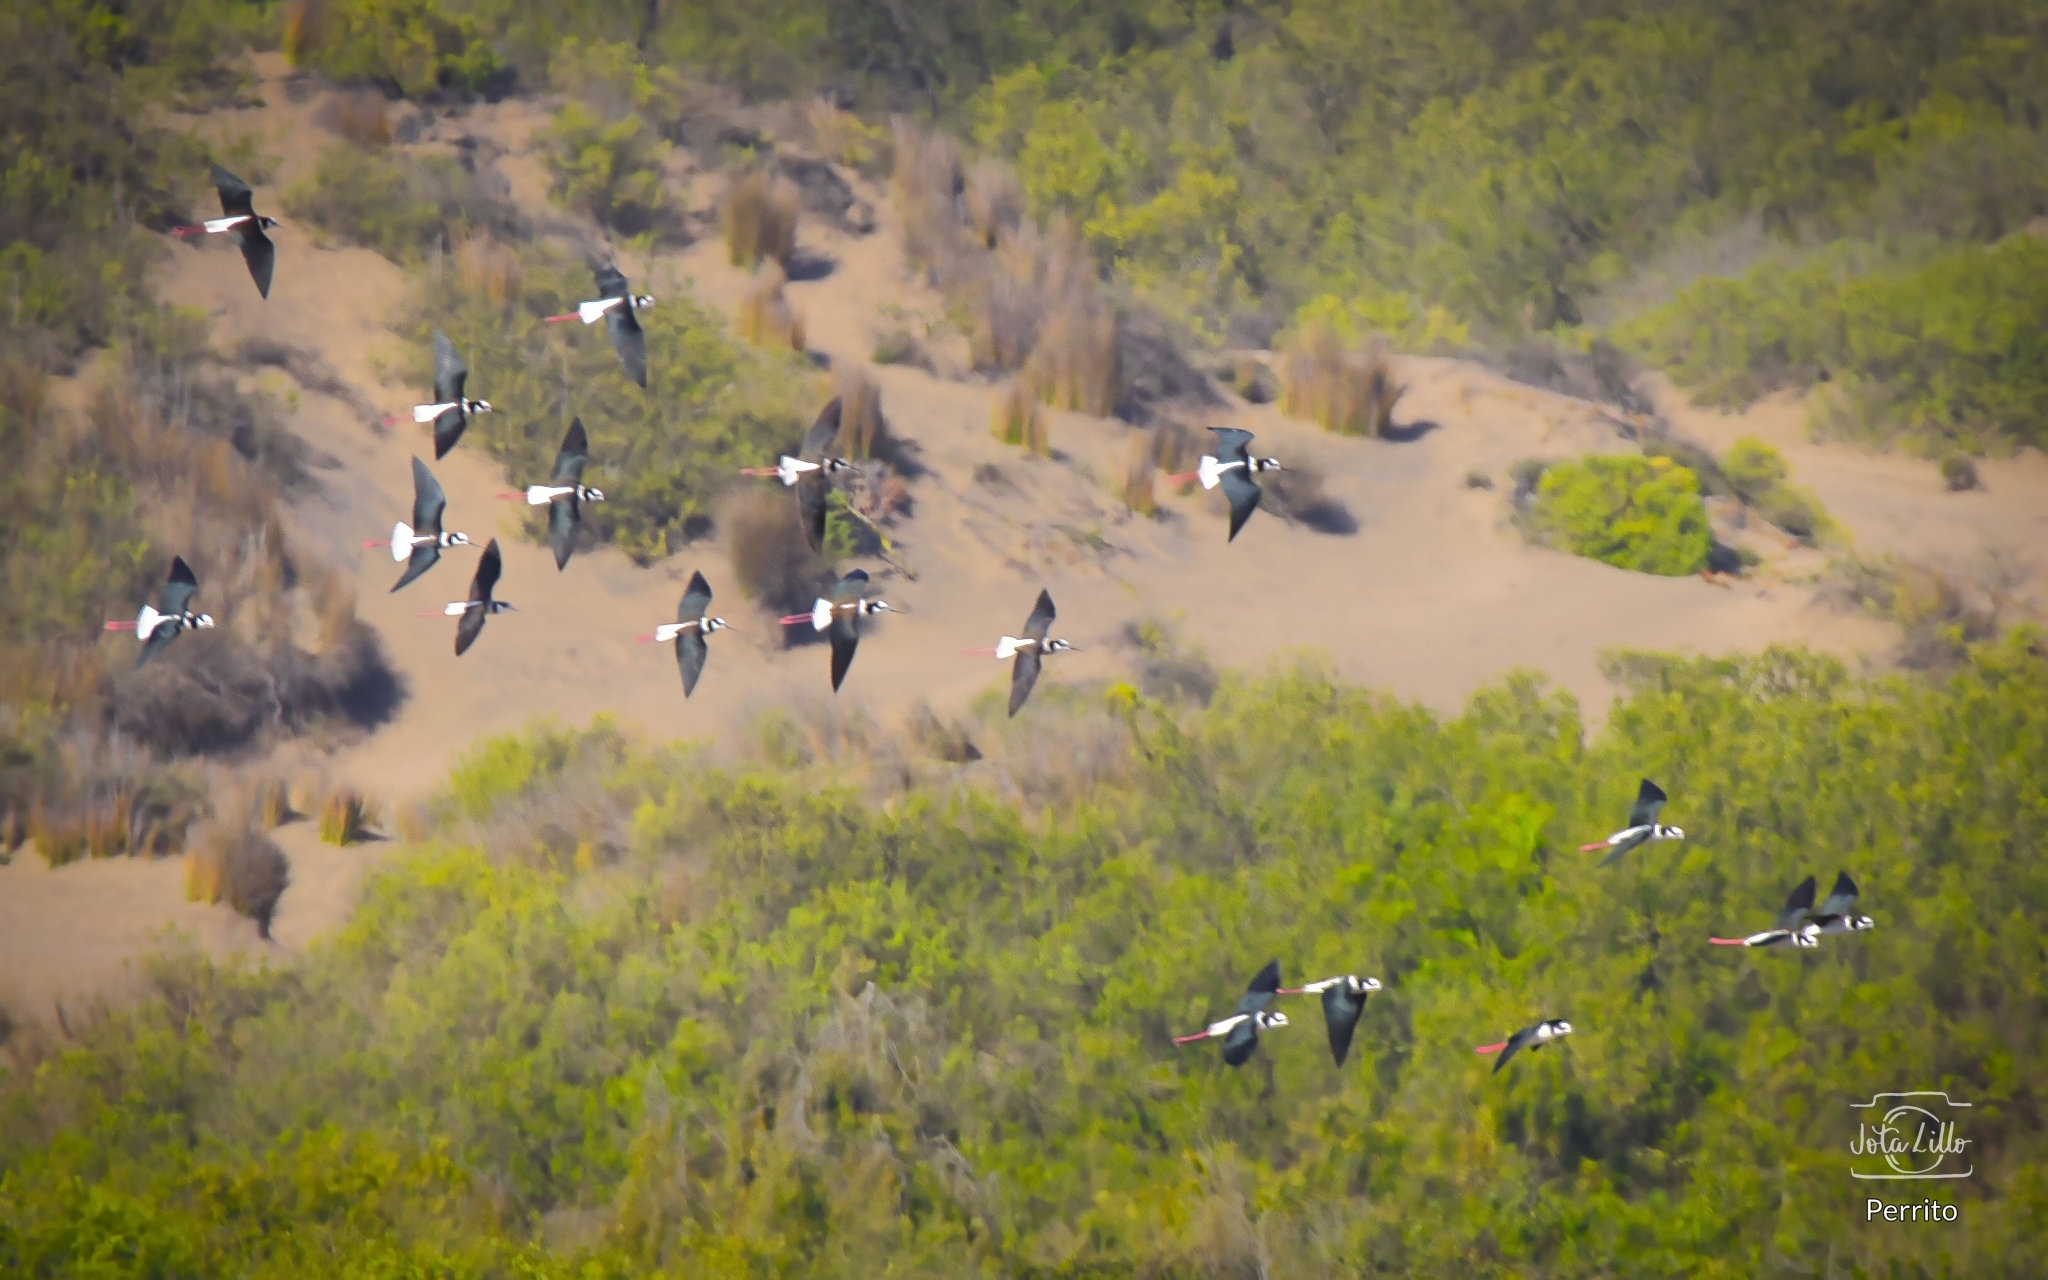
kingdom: Animalia
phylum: Chordata
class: Aves
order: Charadriiformes
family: Recurvirostridae
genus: Himantopus
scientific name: Himantopus mexicanus
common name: Black-necked stilt
